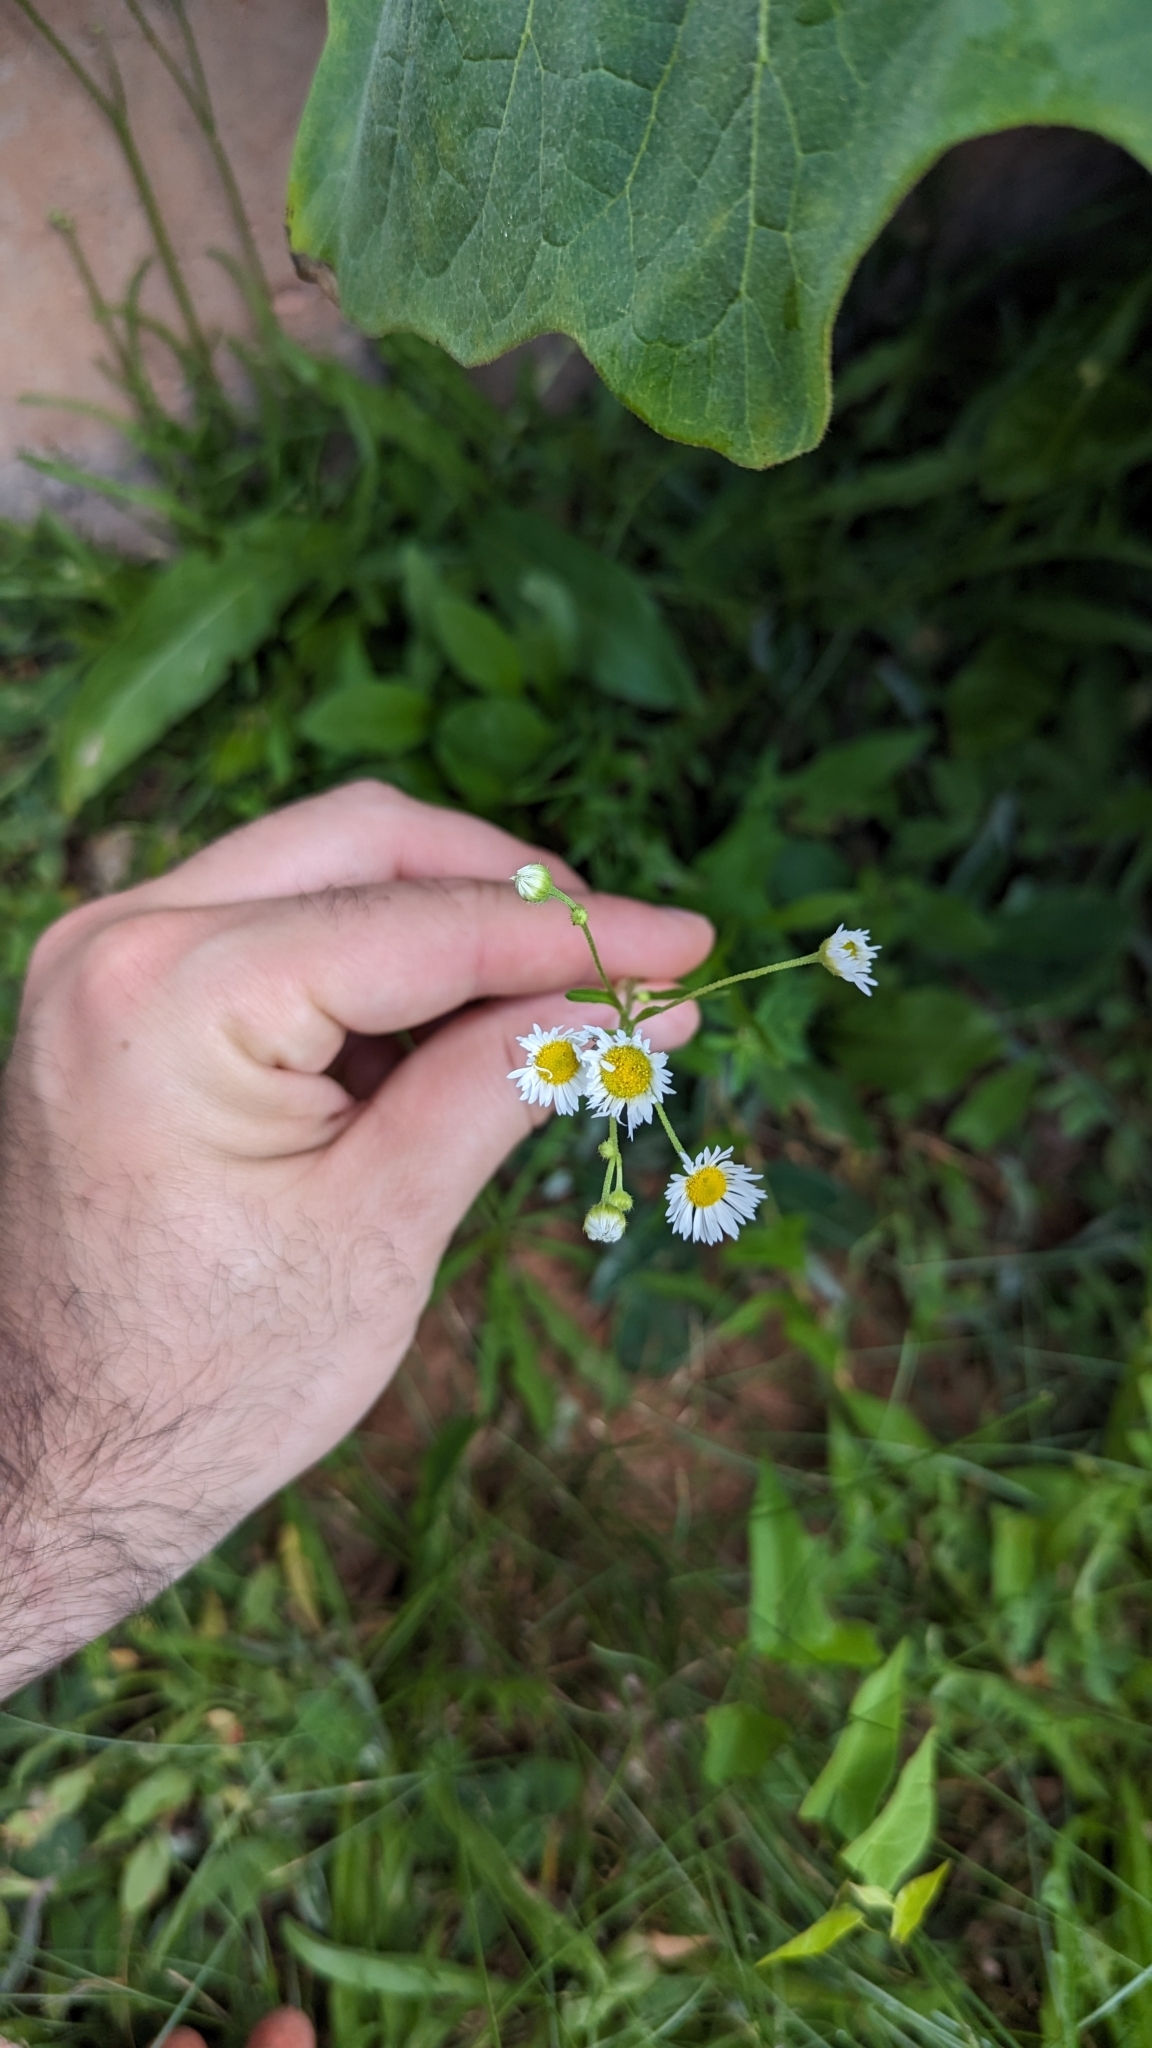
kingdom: Plantae
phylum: Tracheophyta
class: Magnoliopsida
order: Asterales
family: Asteraceae
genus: Erigeron
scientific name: Erigeron strigosus
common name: Common eastern fleabane
